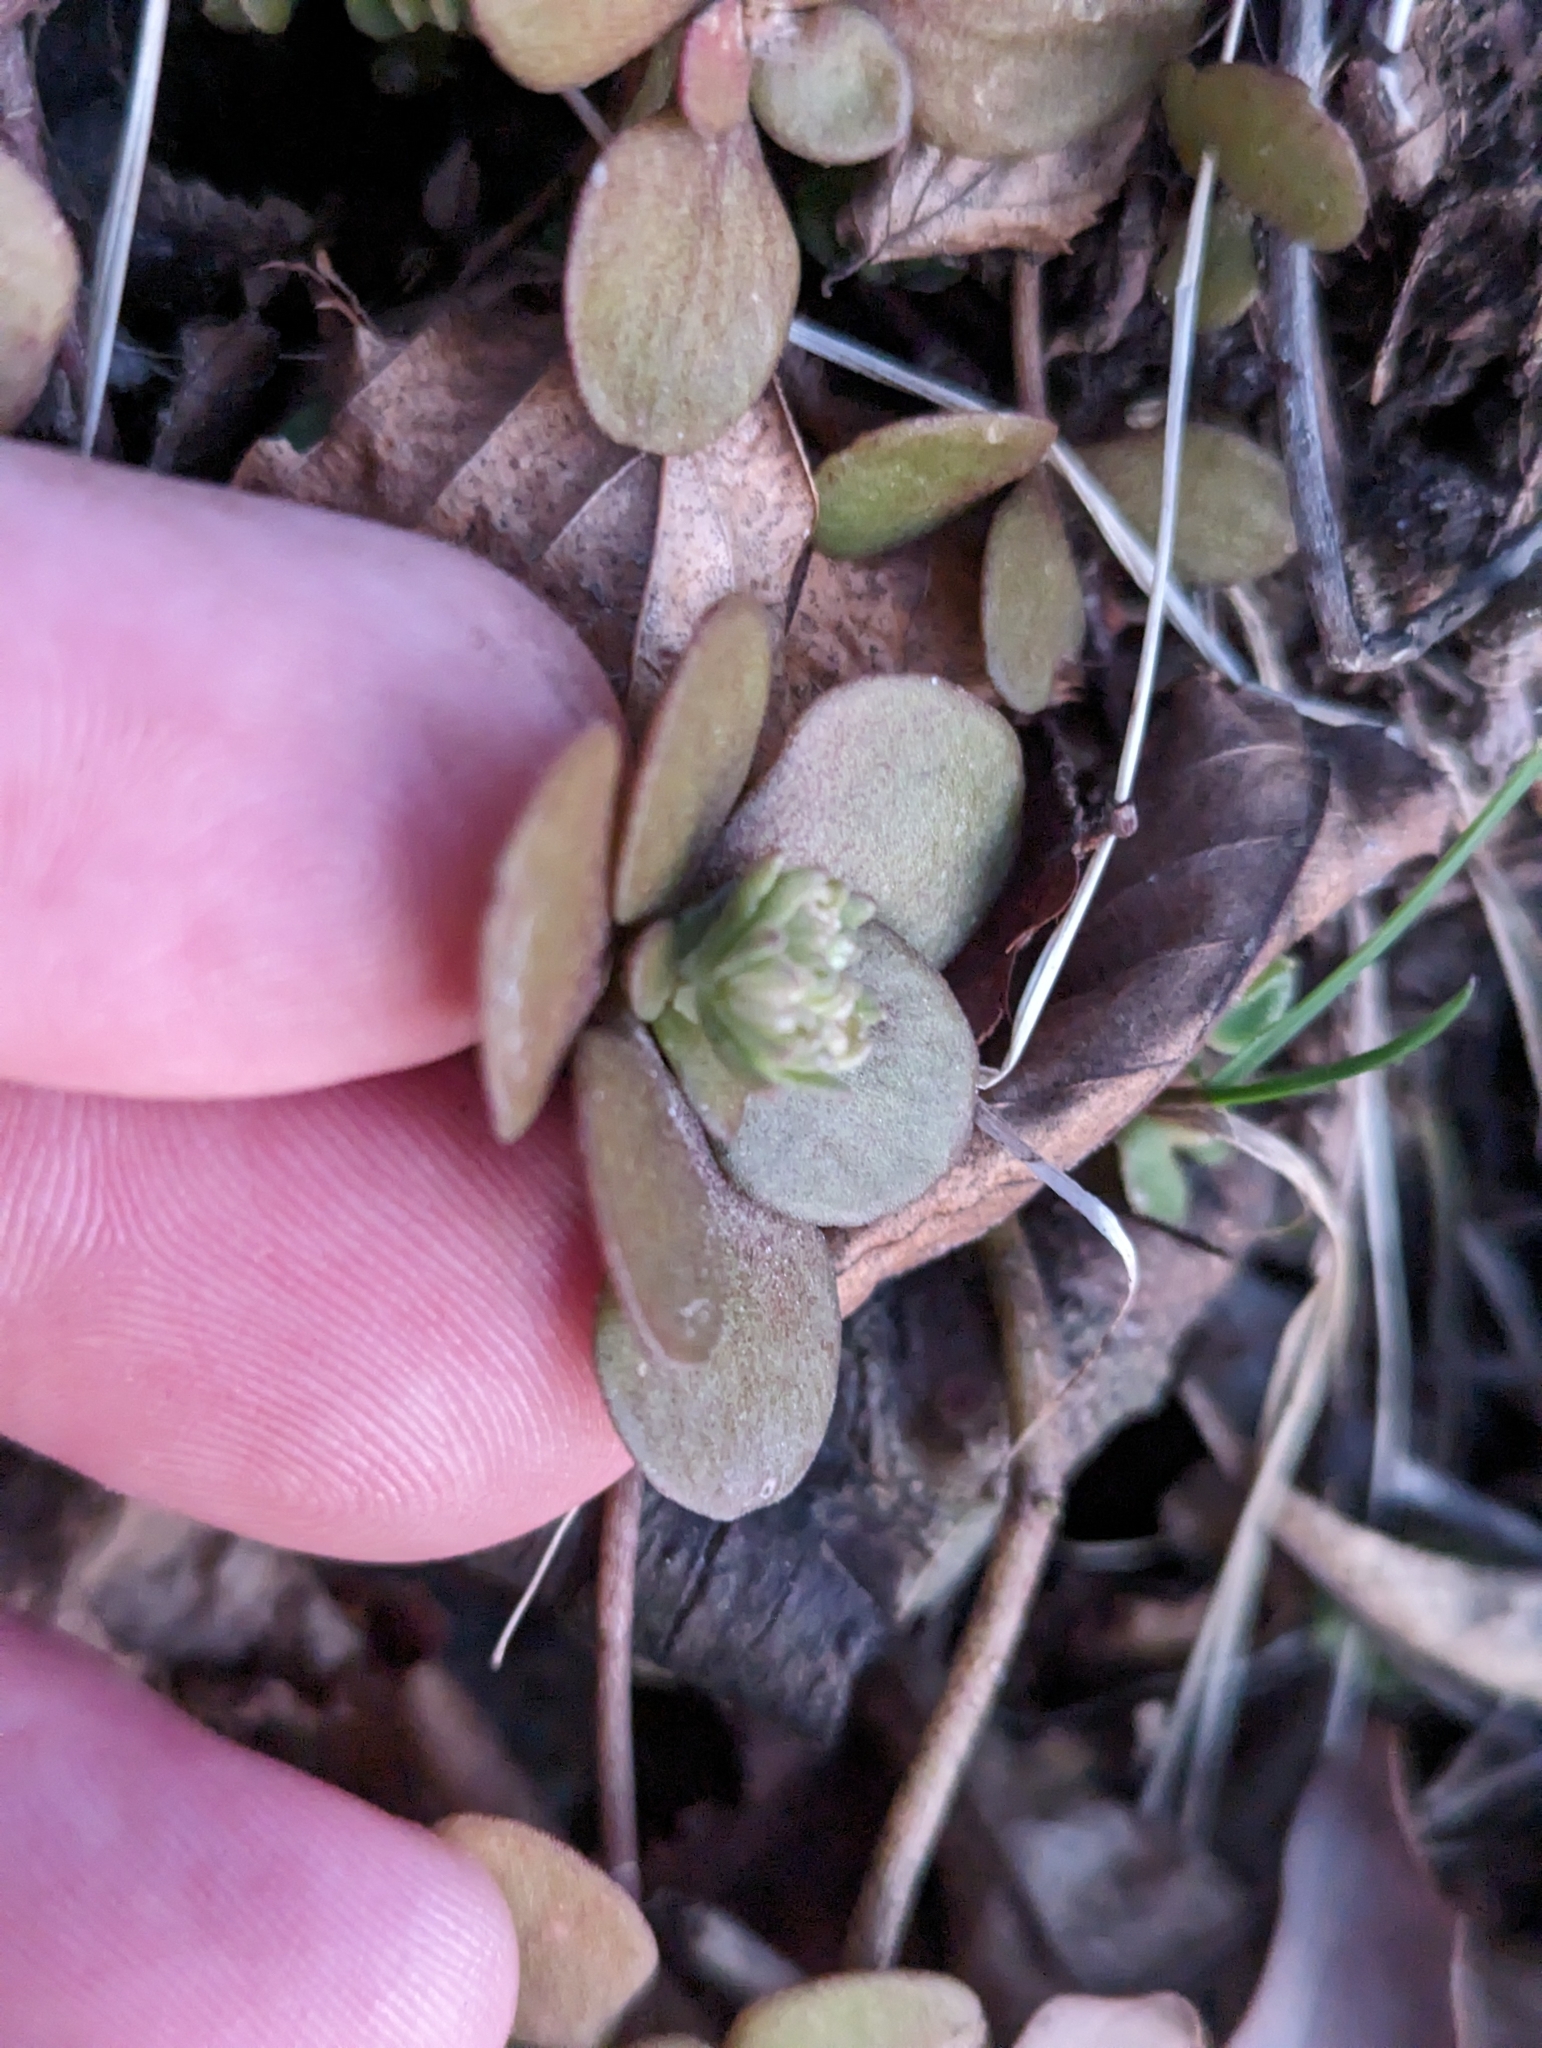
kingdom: Plantae
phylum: Tracheophyta
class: Magnoliopsida
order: Saxifragales
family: Crassulaceae
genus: Sedum
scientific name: Sedum ternatum
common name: Wild stonecrop
